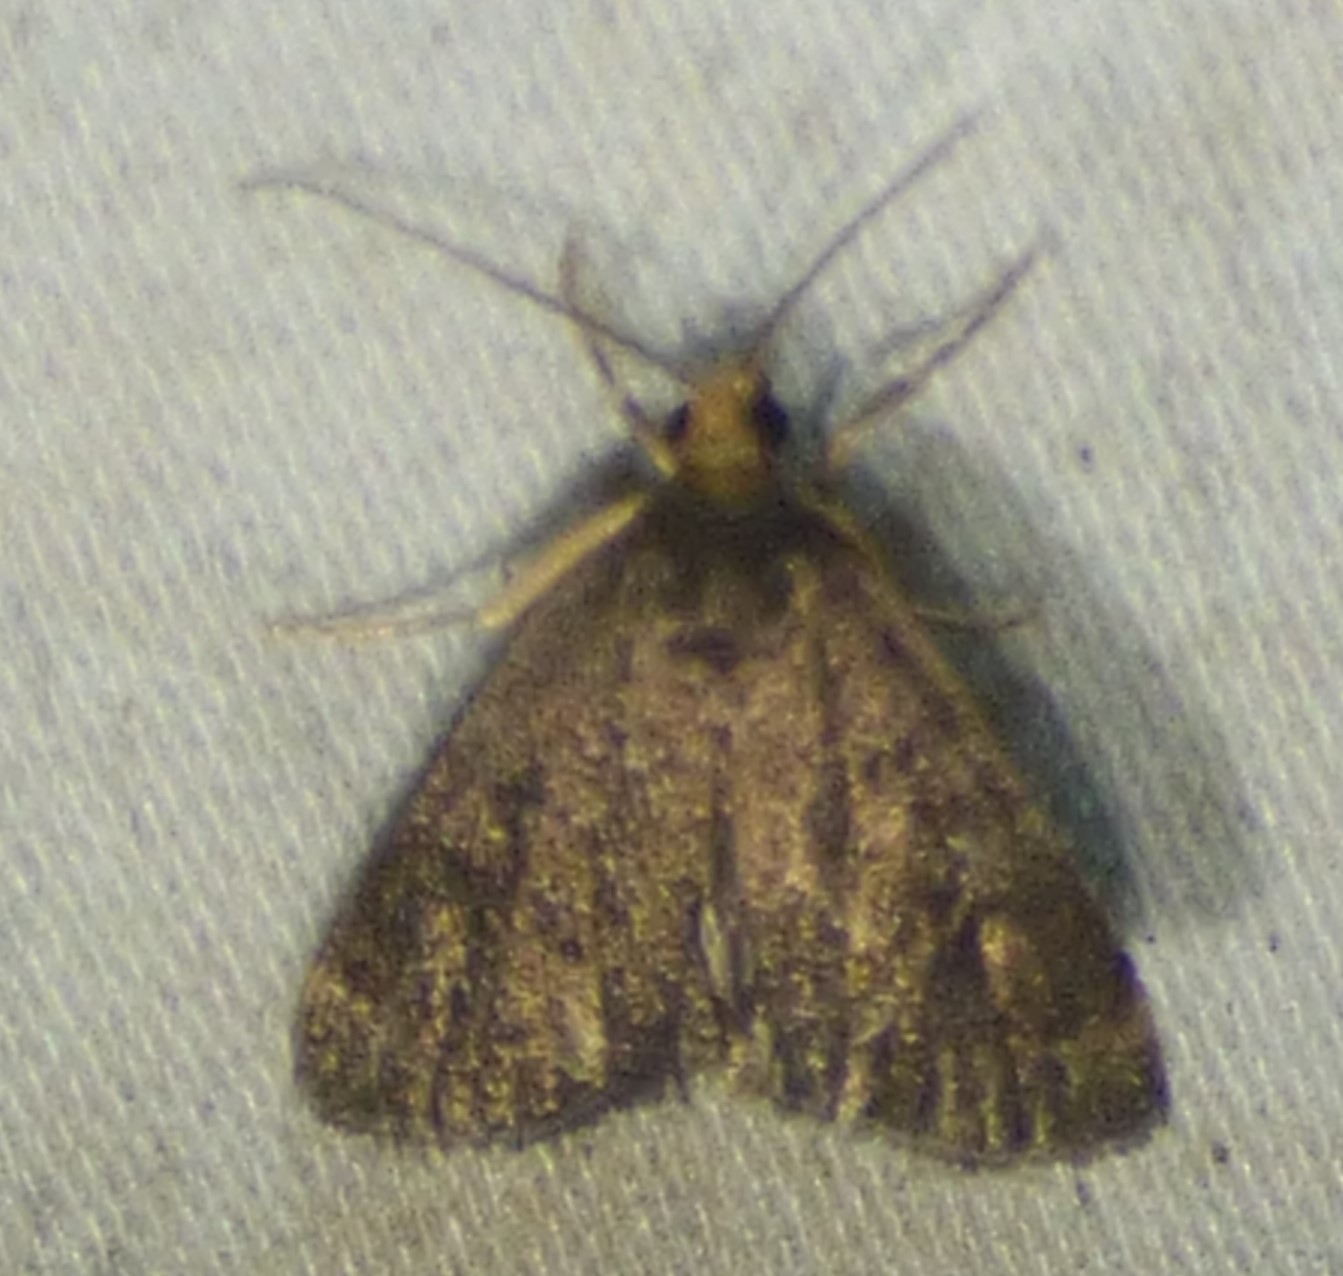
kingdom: Animalia
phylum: Arthropoda
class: Insecta
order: Lepidoptera
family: Crambidae
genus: Pyrausta
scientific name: Pyrausta merrickalis
